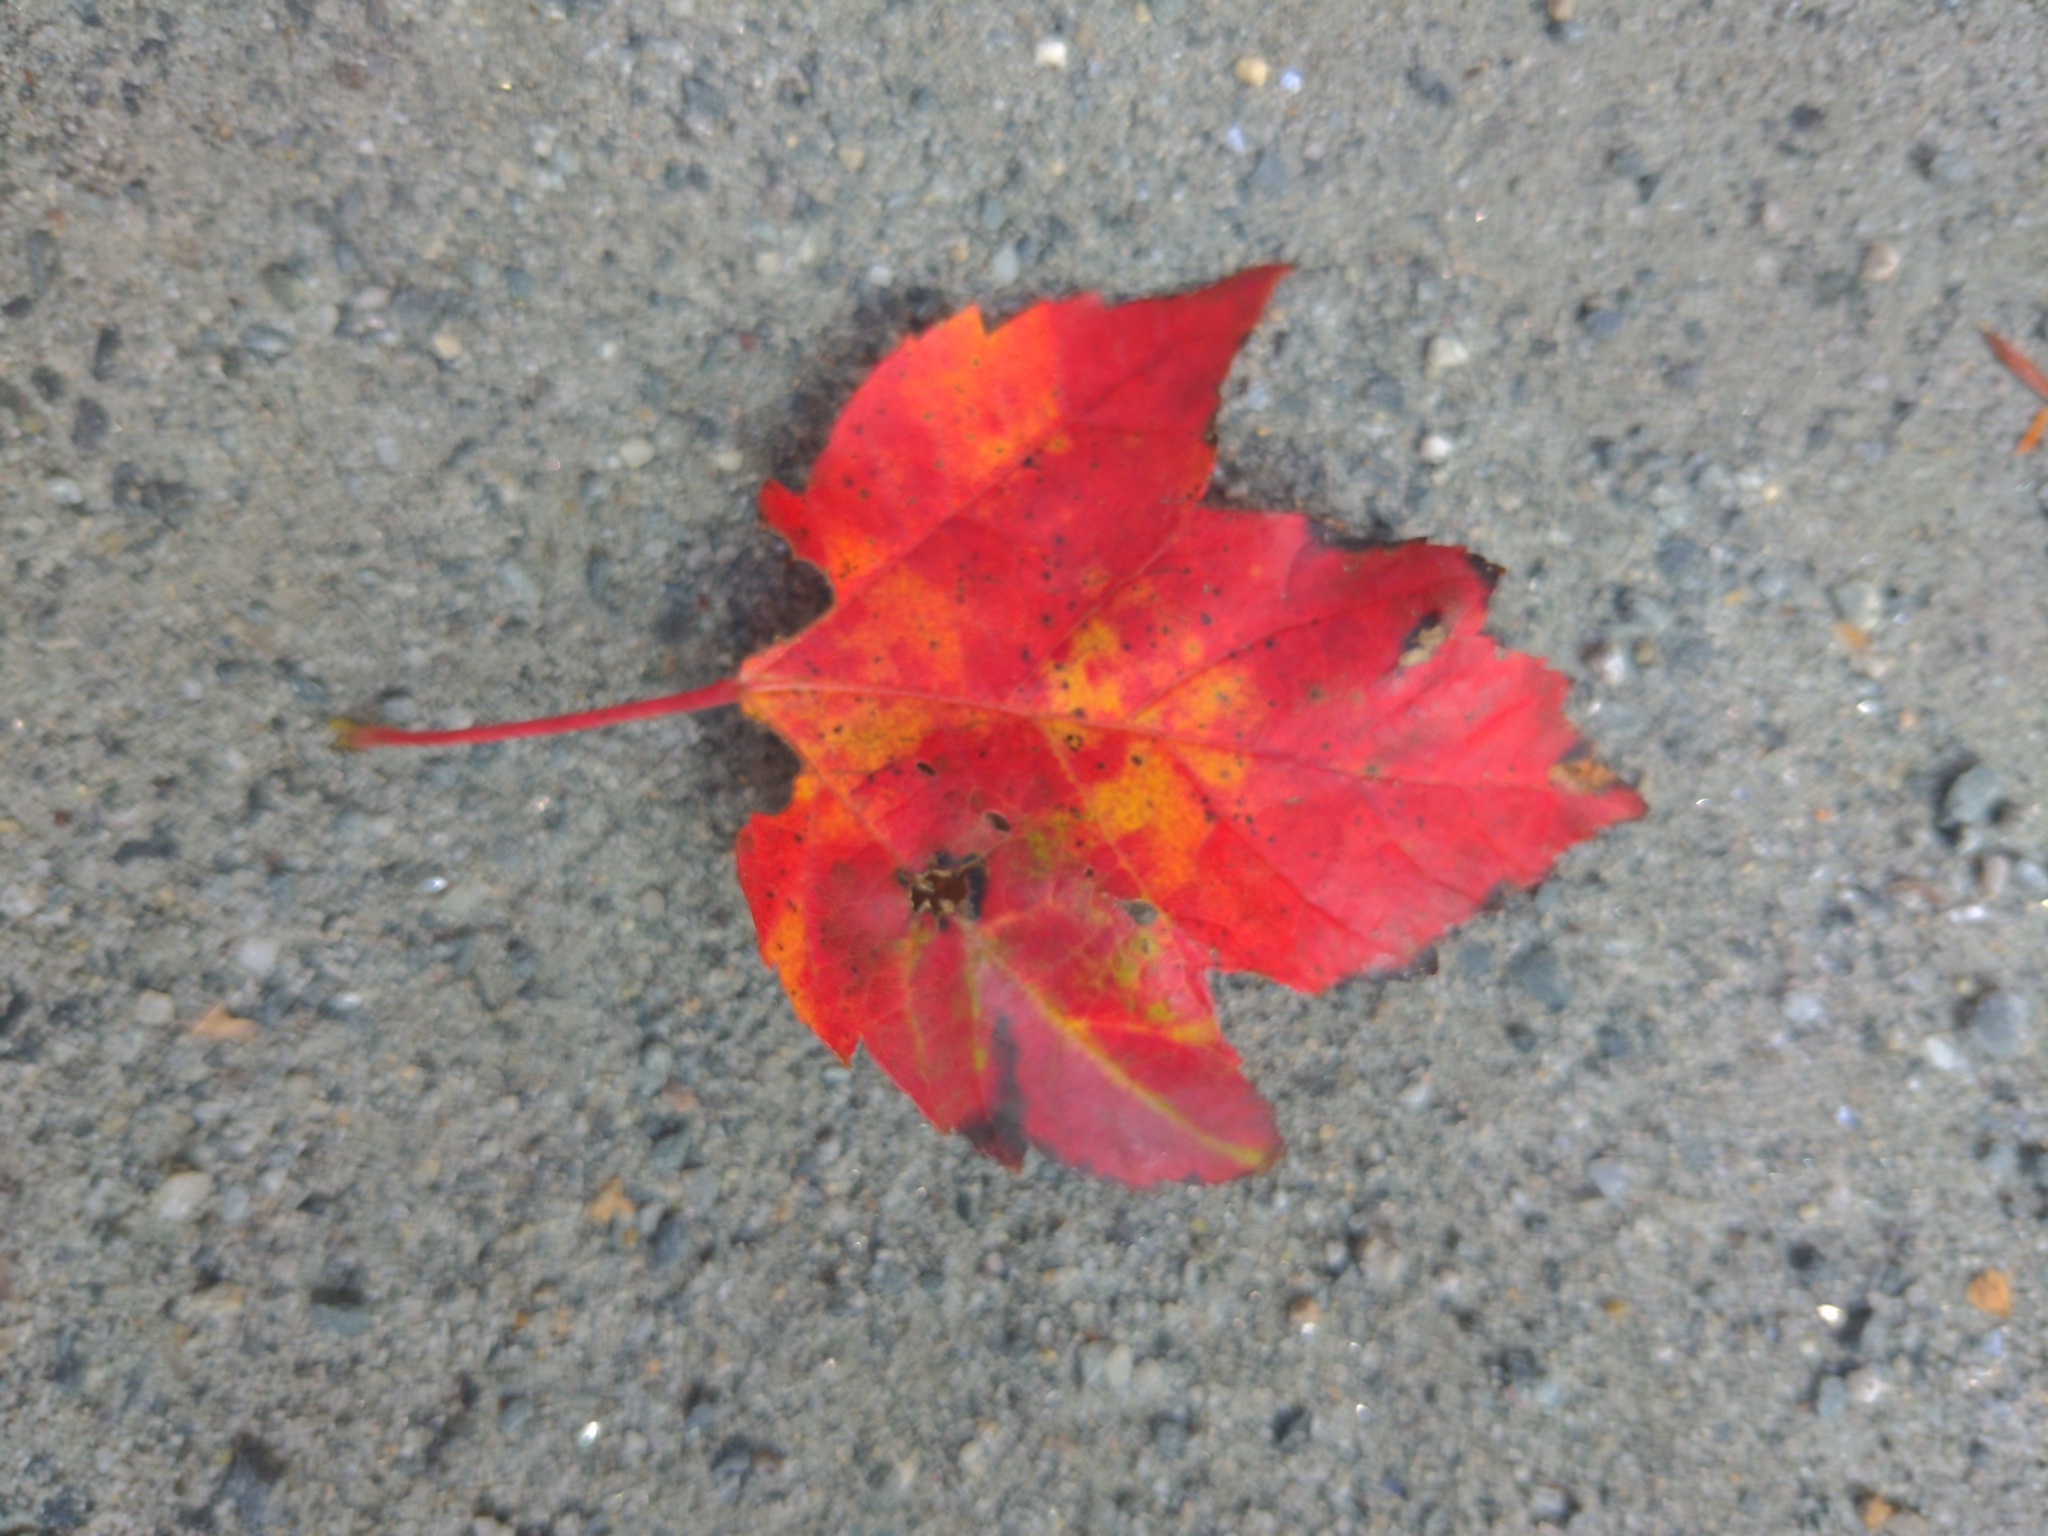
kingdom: Plantae
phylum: Tracheophyta
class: Magnoliopsida
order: Sapindales
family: Sapindaceae
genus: Acer
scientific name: Acer rubrum
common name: Red maple
